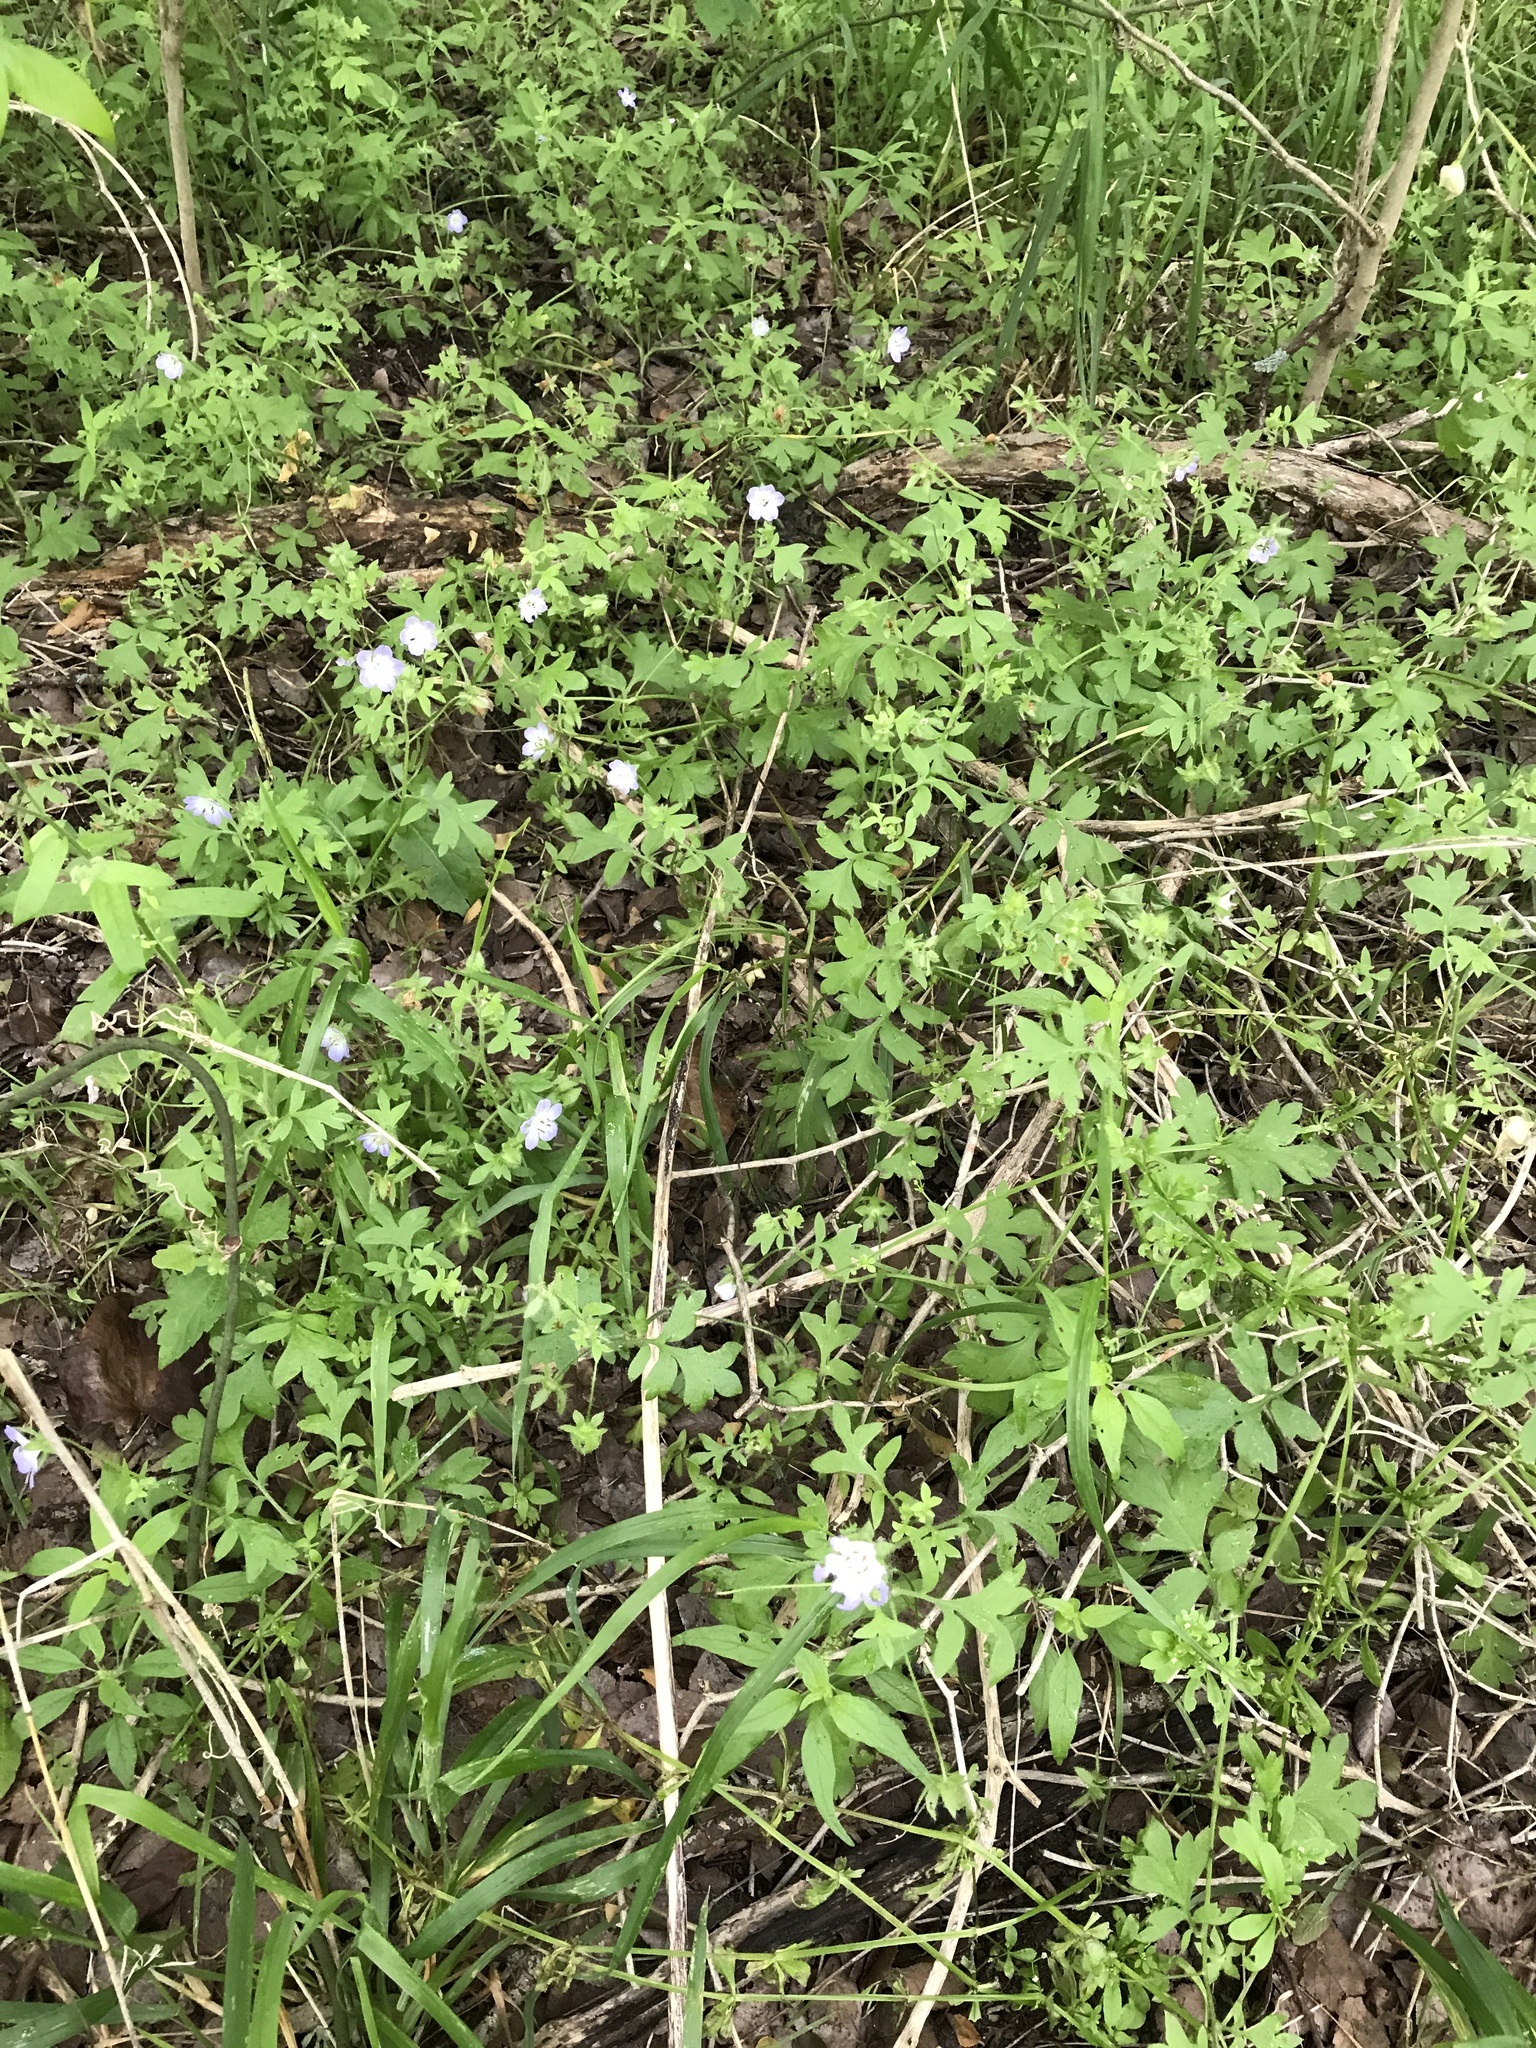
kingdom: Plantae
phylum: Tracheophyta
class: Magnoliopsida
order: Boraginales
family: Hydrophyllaceae
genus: Nemophila
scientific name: Nemophila phacelioides
